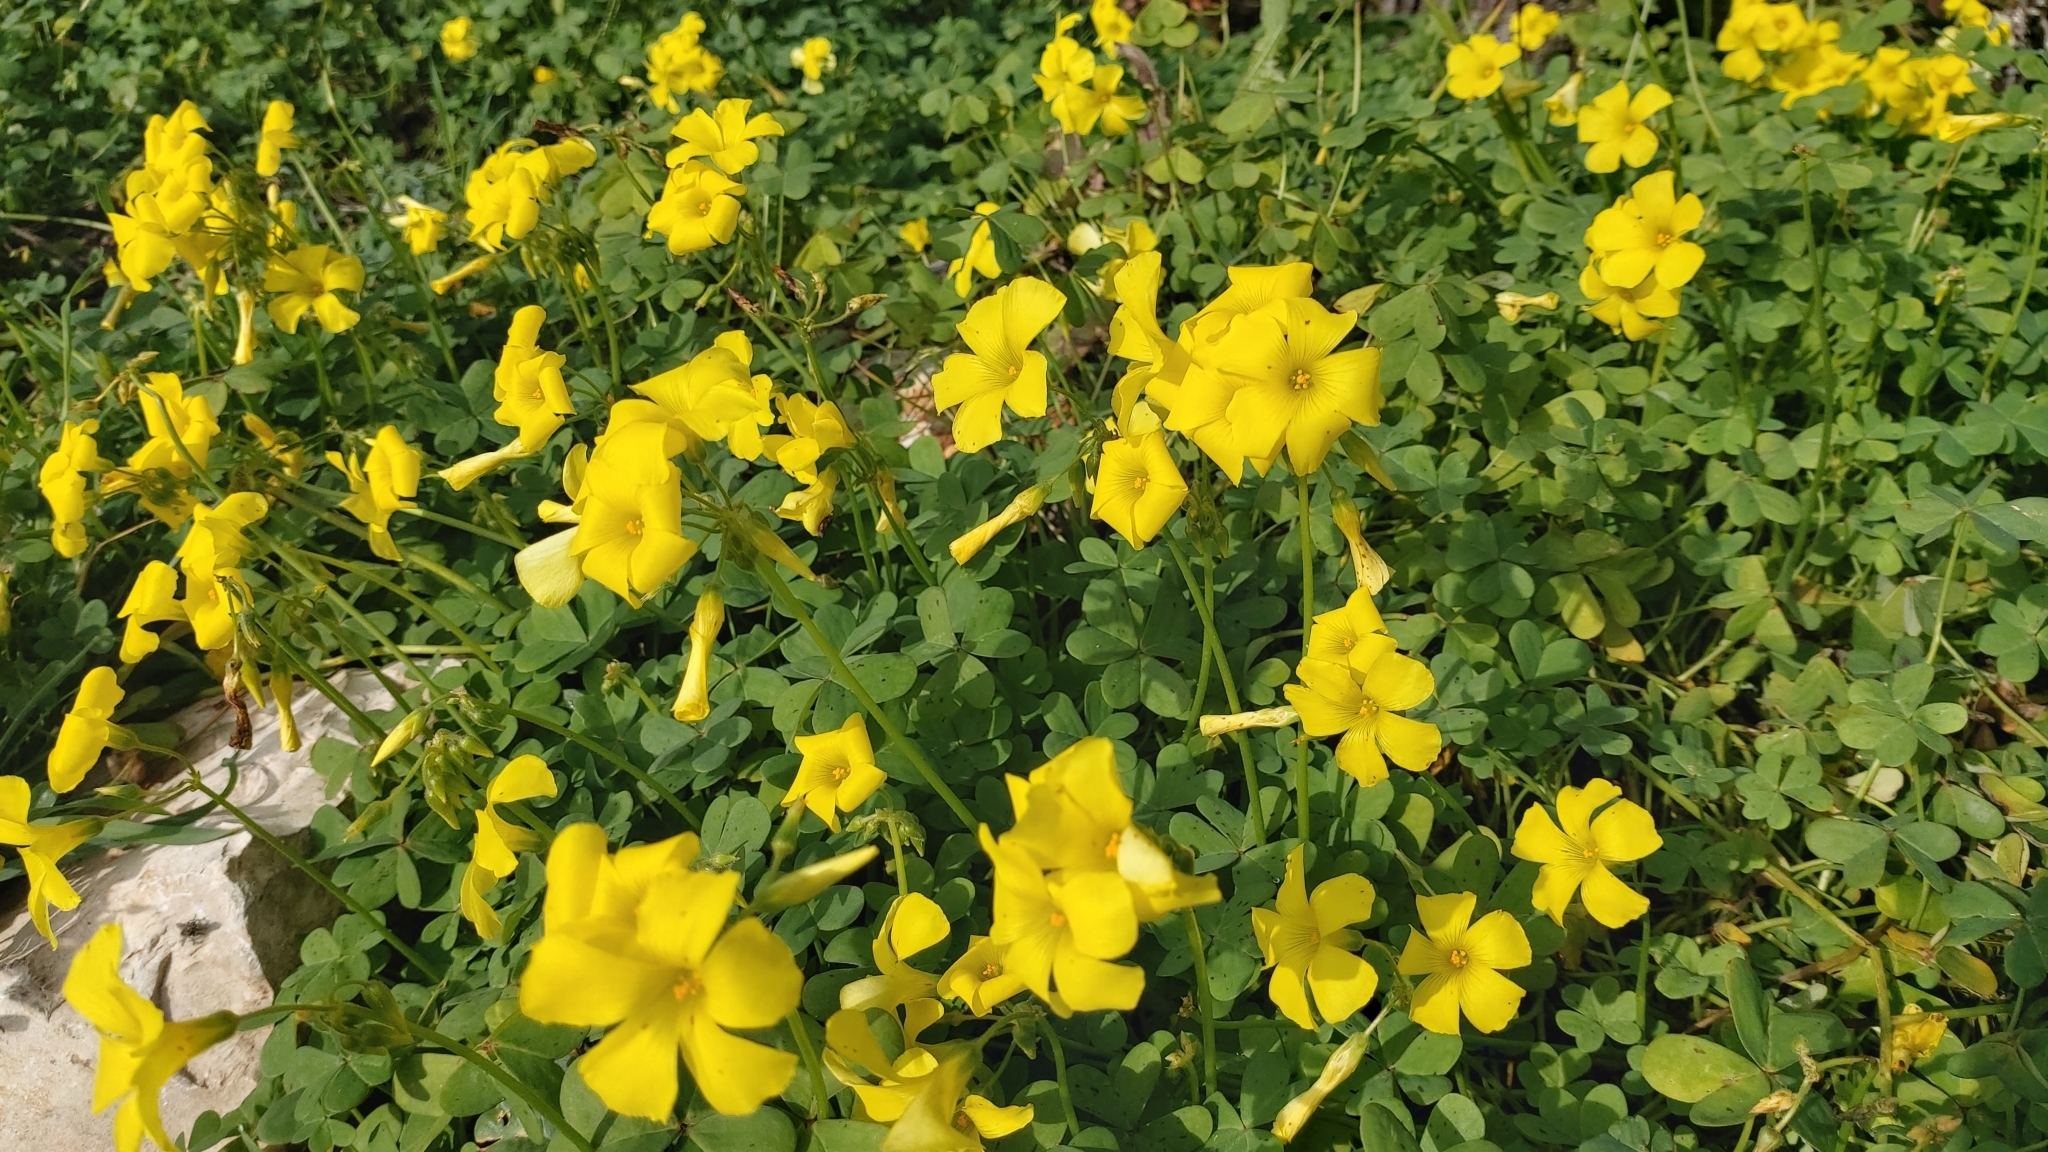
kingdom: Plantae
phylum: Tracheophyta
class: Magnoliopsida
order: Oxalidales
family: Oxalidaceae
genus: Oxalis
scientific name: Oxalis pes-caprae
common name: Bermuda-buttercup
